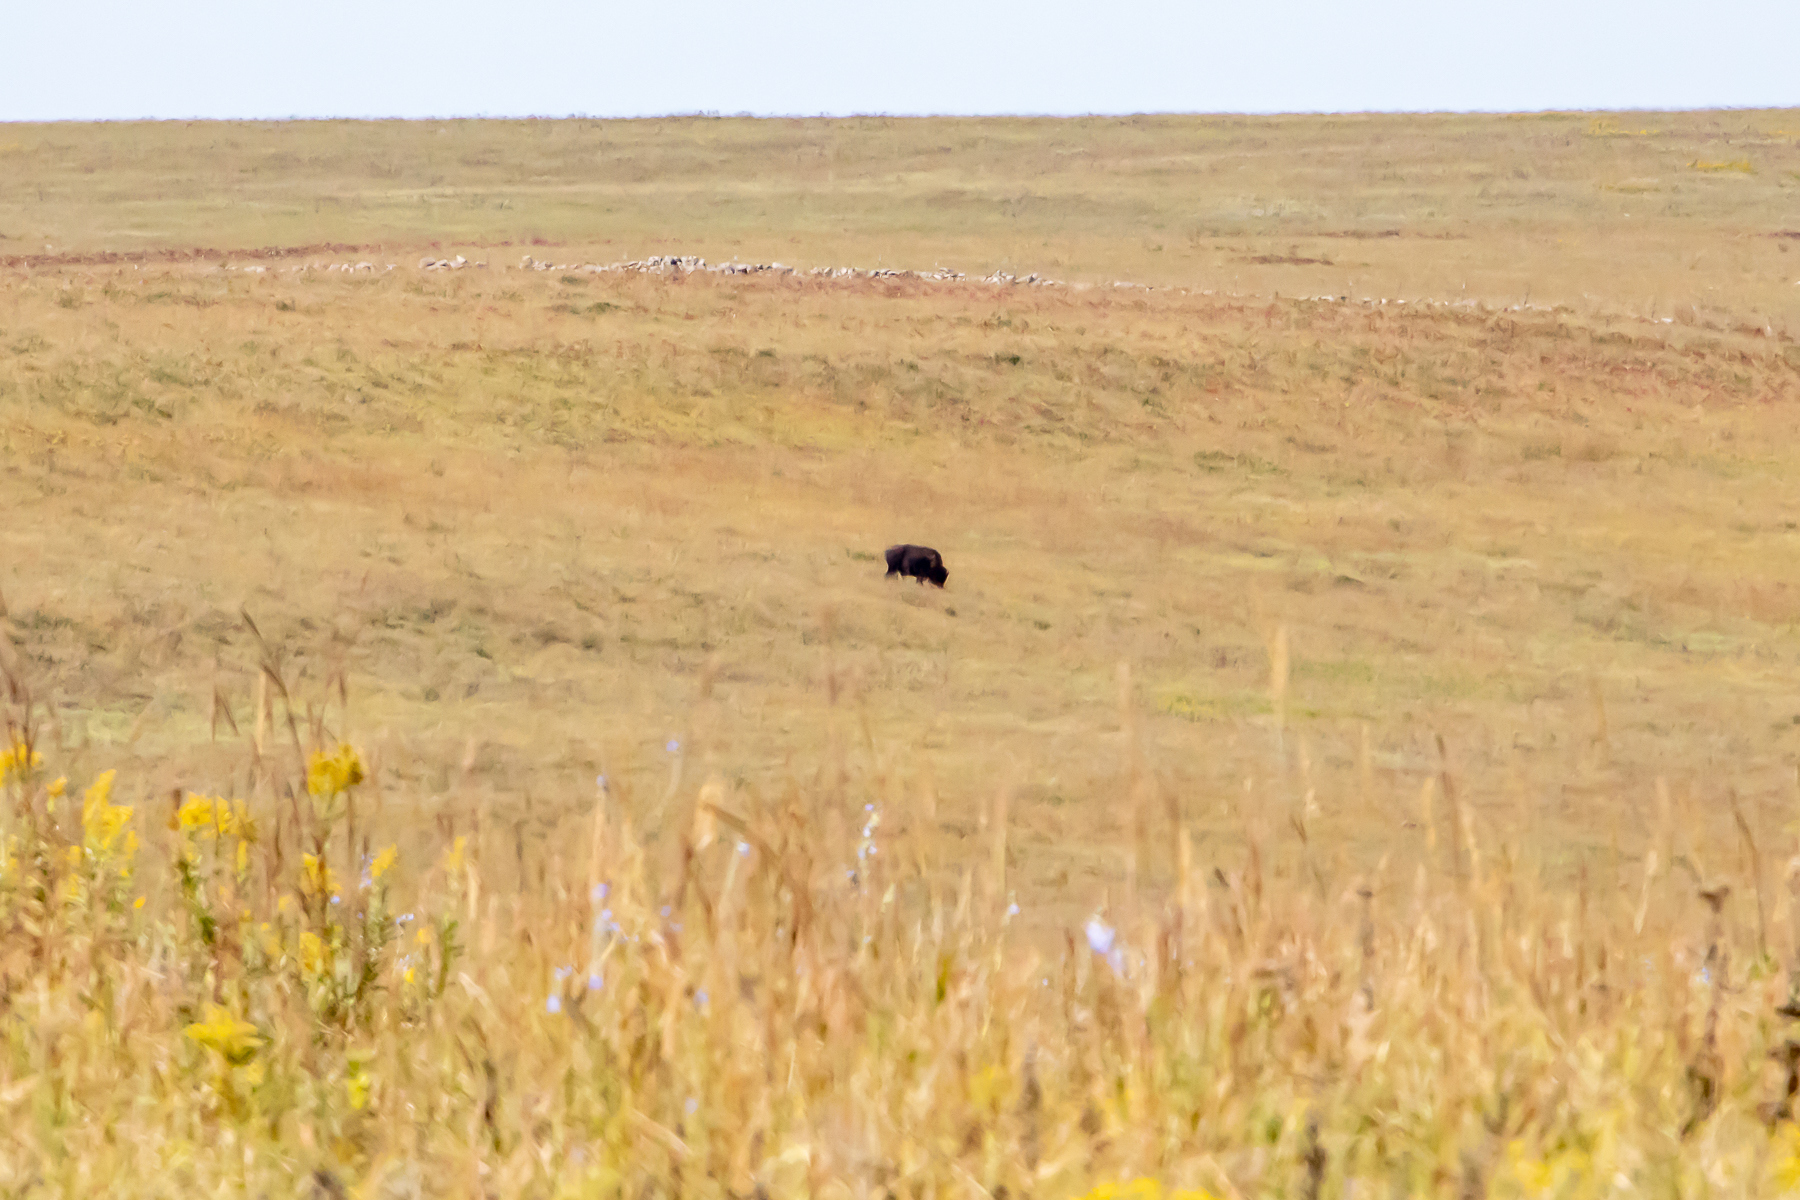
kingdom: Animalia
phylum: Chordata
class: Mammalia
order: Artiodactyla
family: Bovidae
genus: Bison
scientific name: Bison bison
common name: American bison
